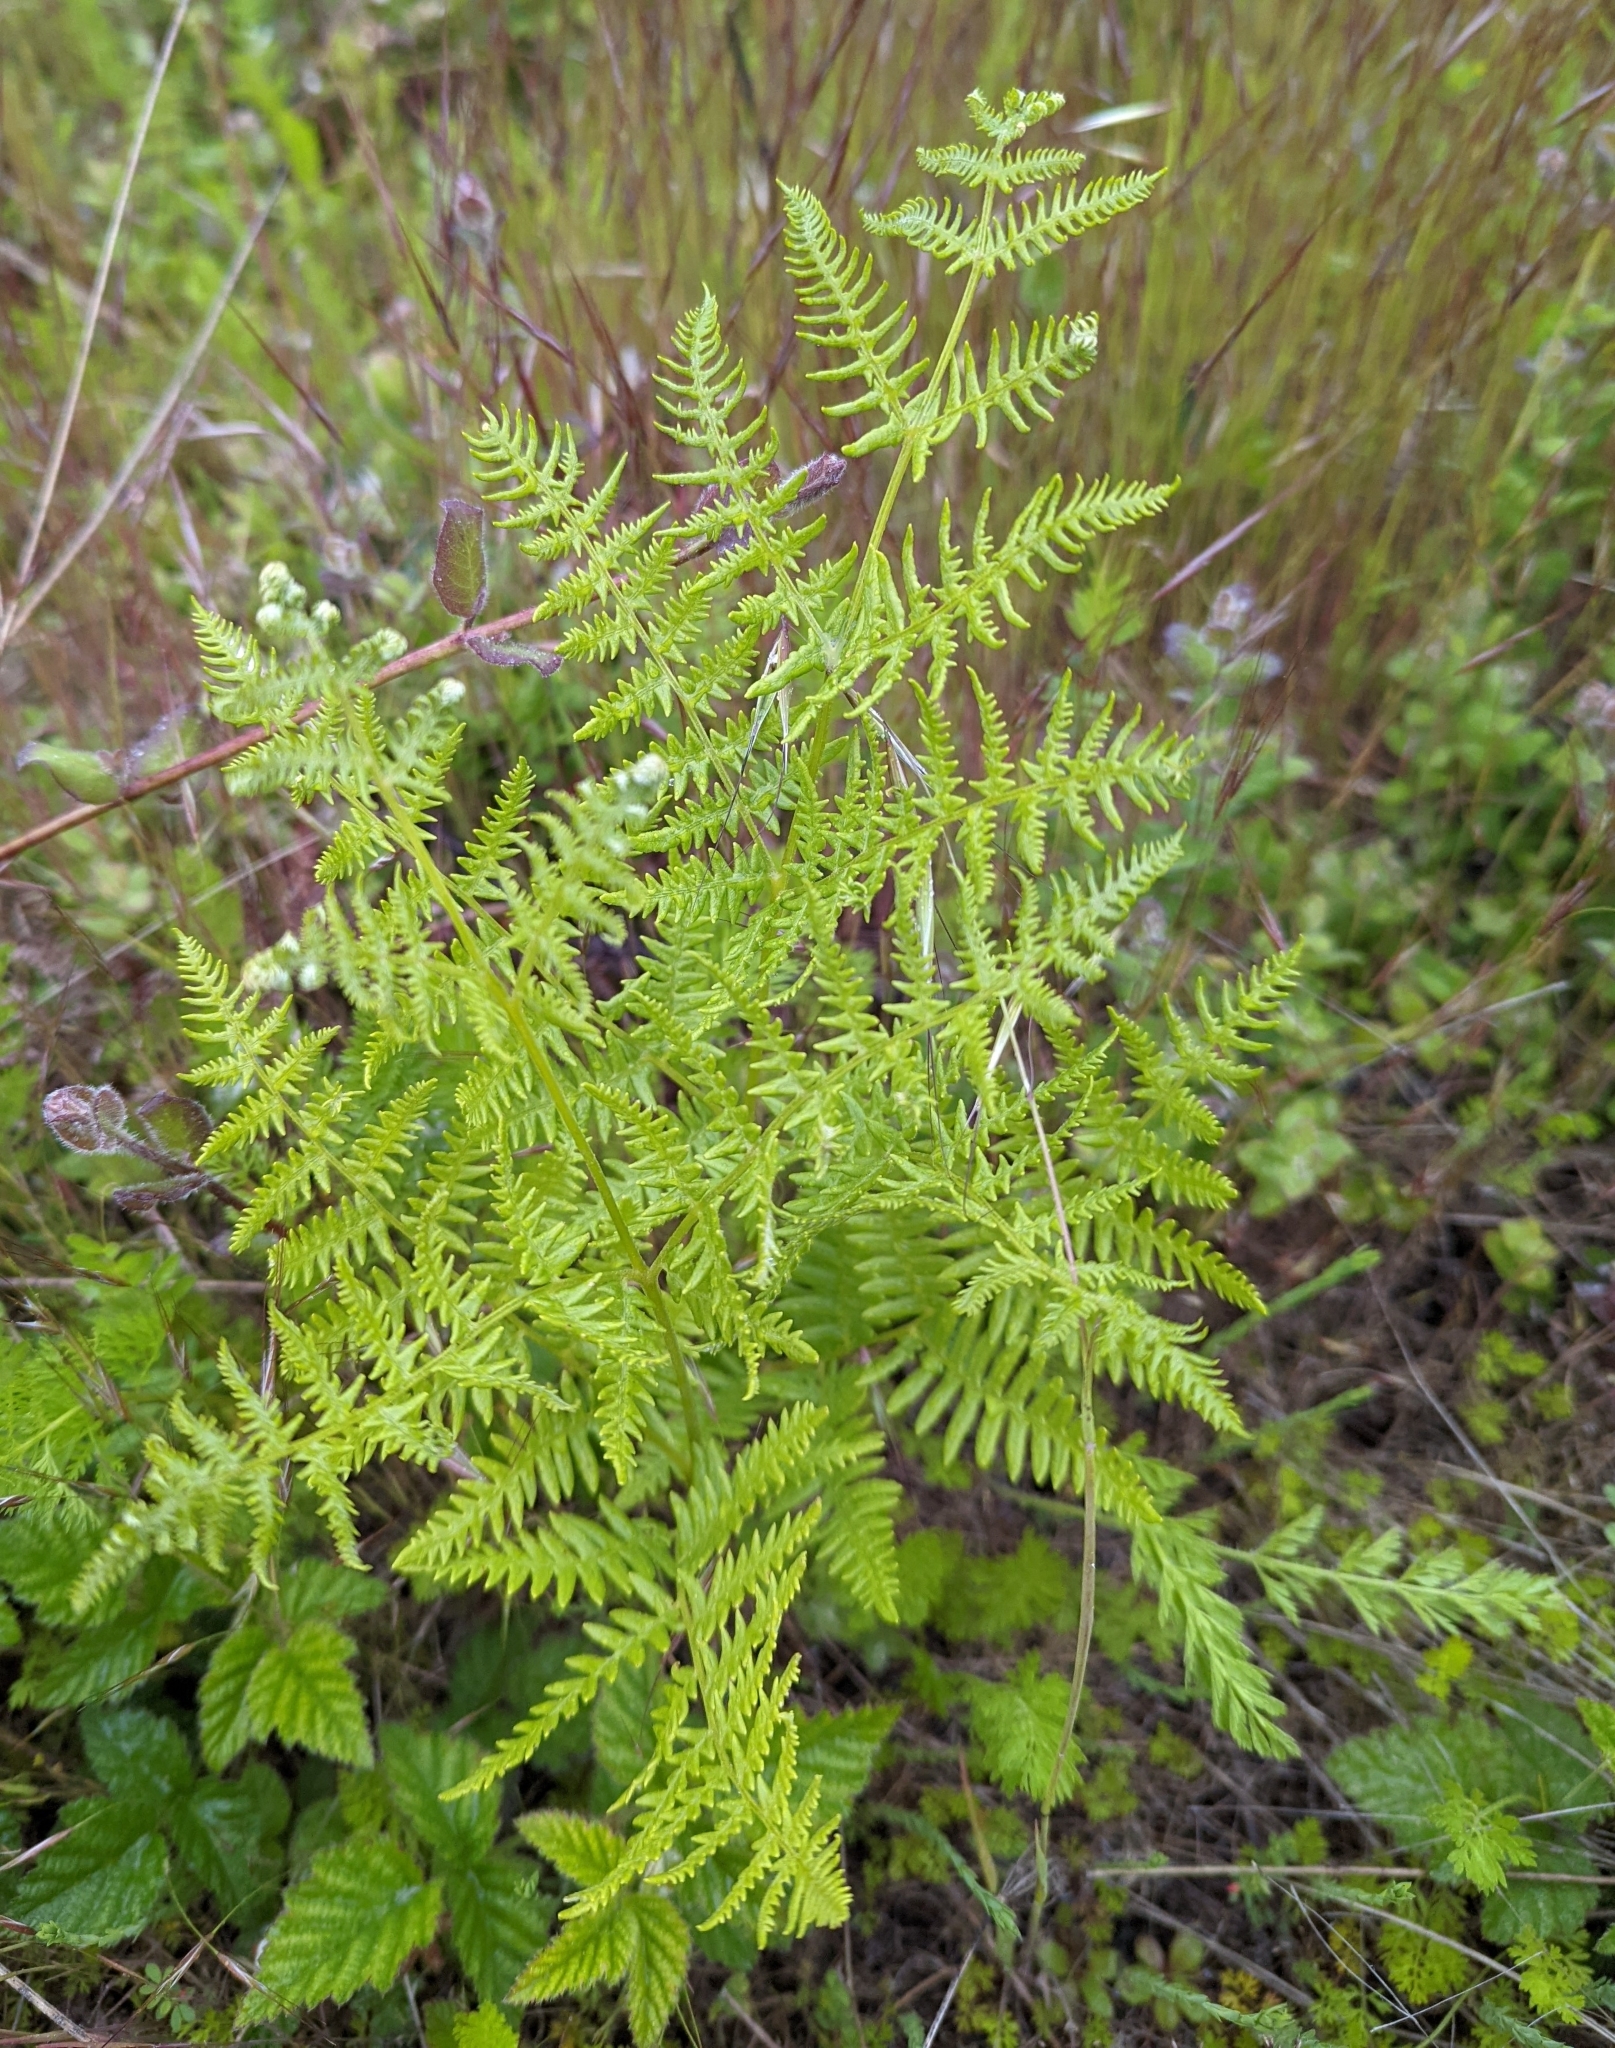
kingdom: Plantae
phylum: Tracheophyta
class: Polypodiopsida
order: Polypodiales
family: Dennstaedtiaceae
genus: Pteridium
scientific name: Pteridium aquilinum
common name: Bracken
